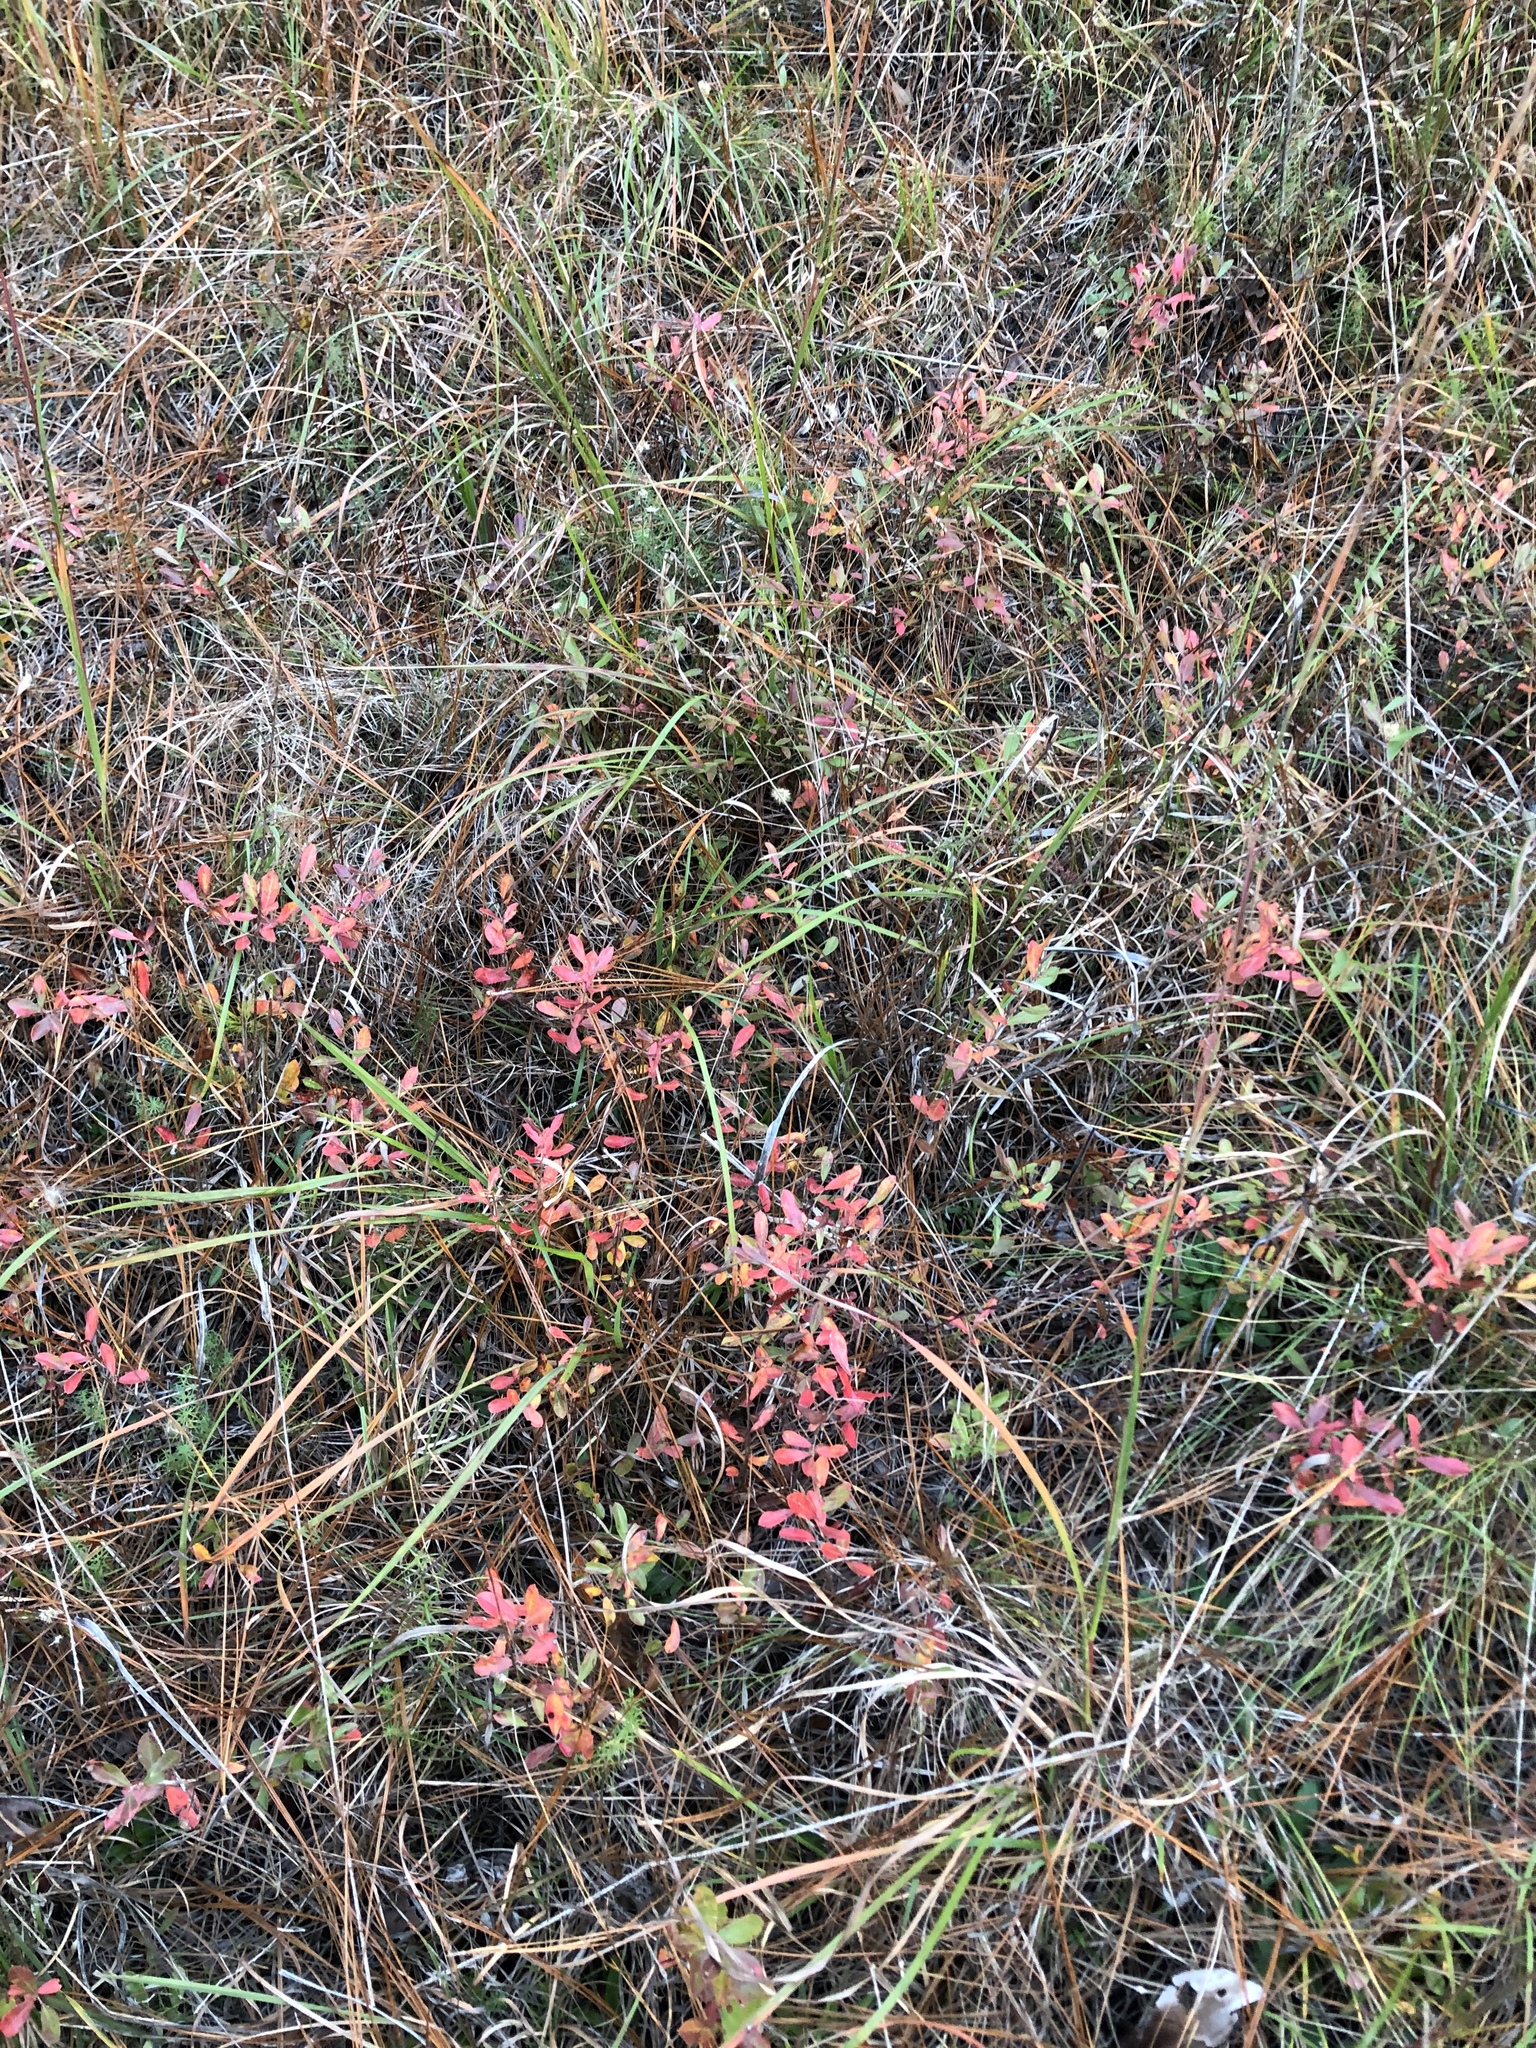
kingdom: Plantae
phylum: Tracheophyta
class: Magnoliopsida
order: Ericales
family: Ericaceae
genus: Gaylussacia
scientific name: Gaylussacia dumosa
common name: Dwarf huckleberry
